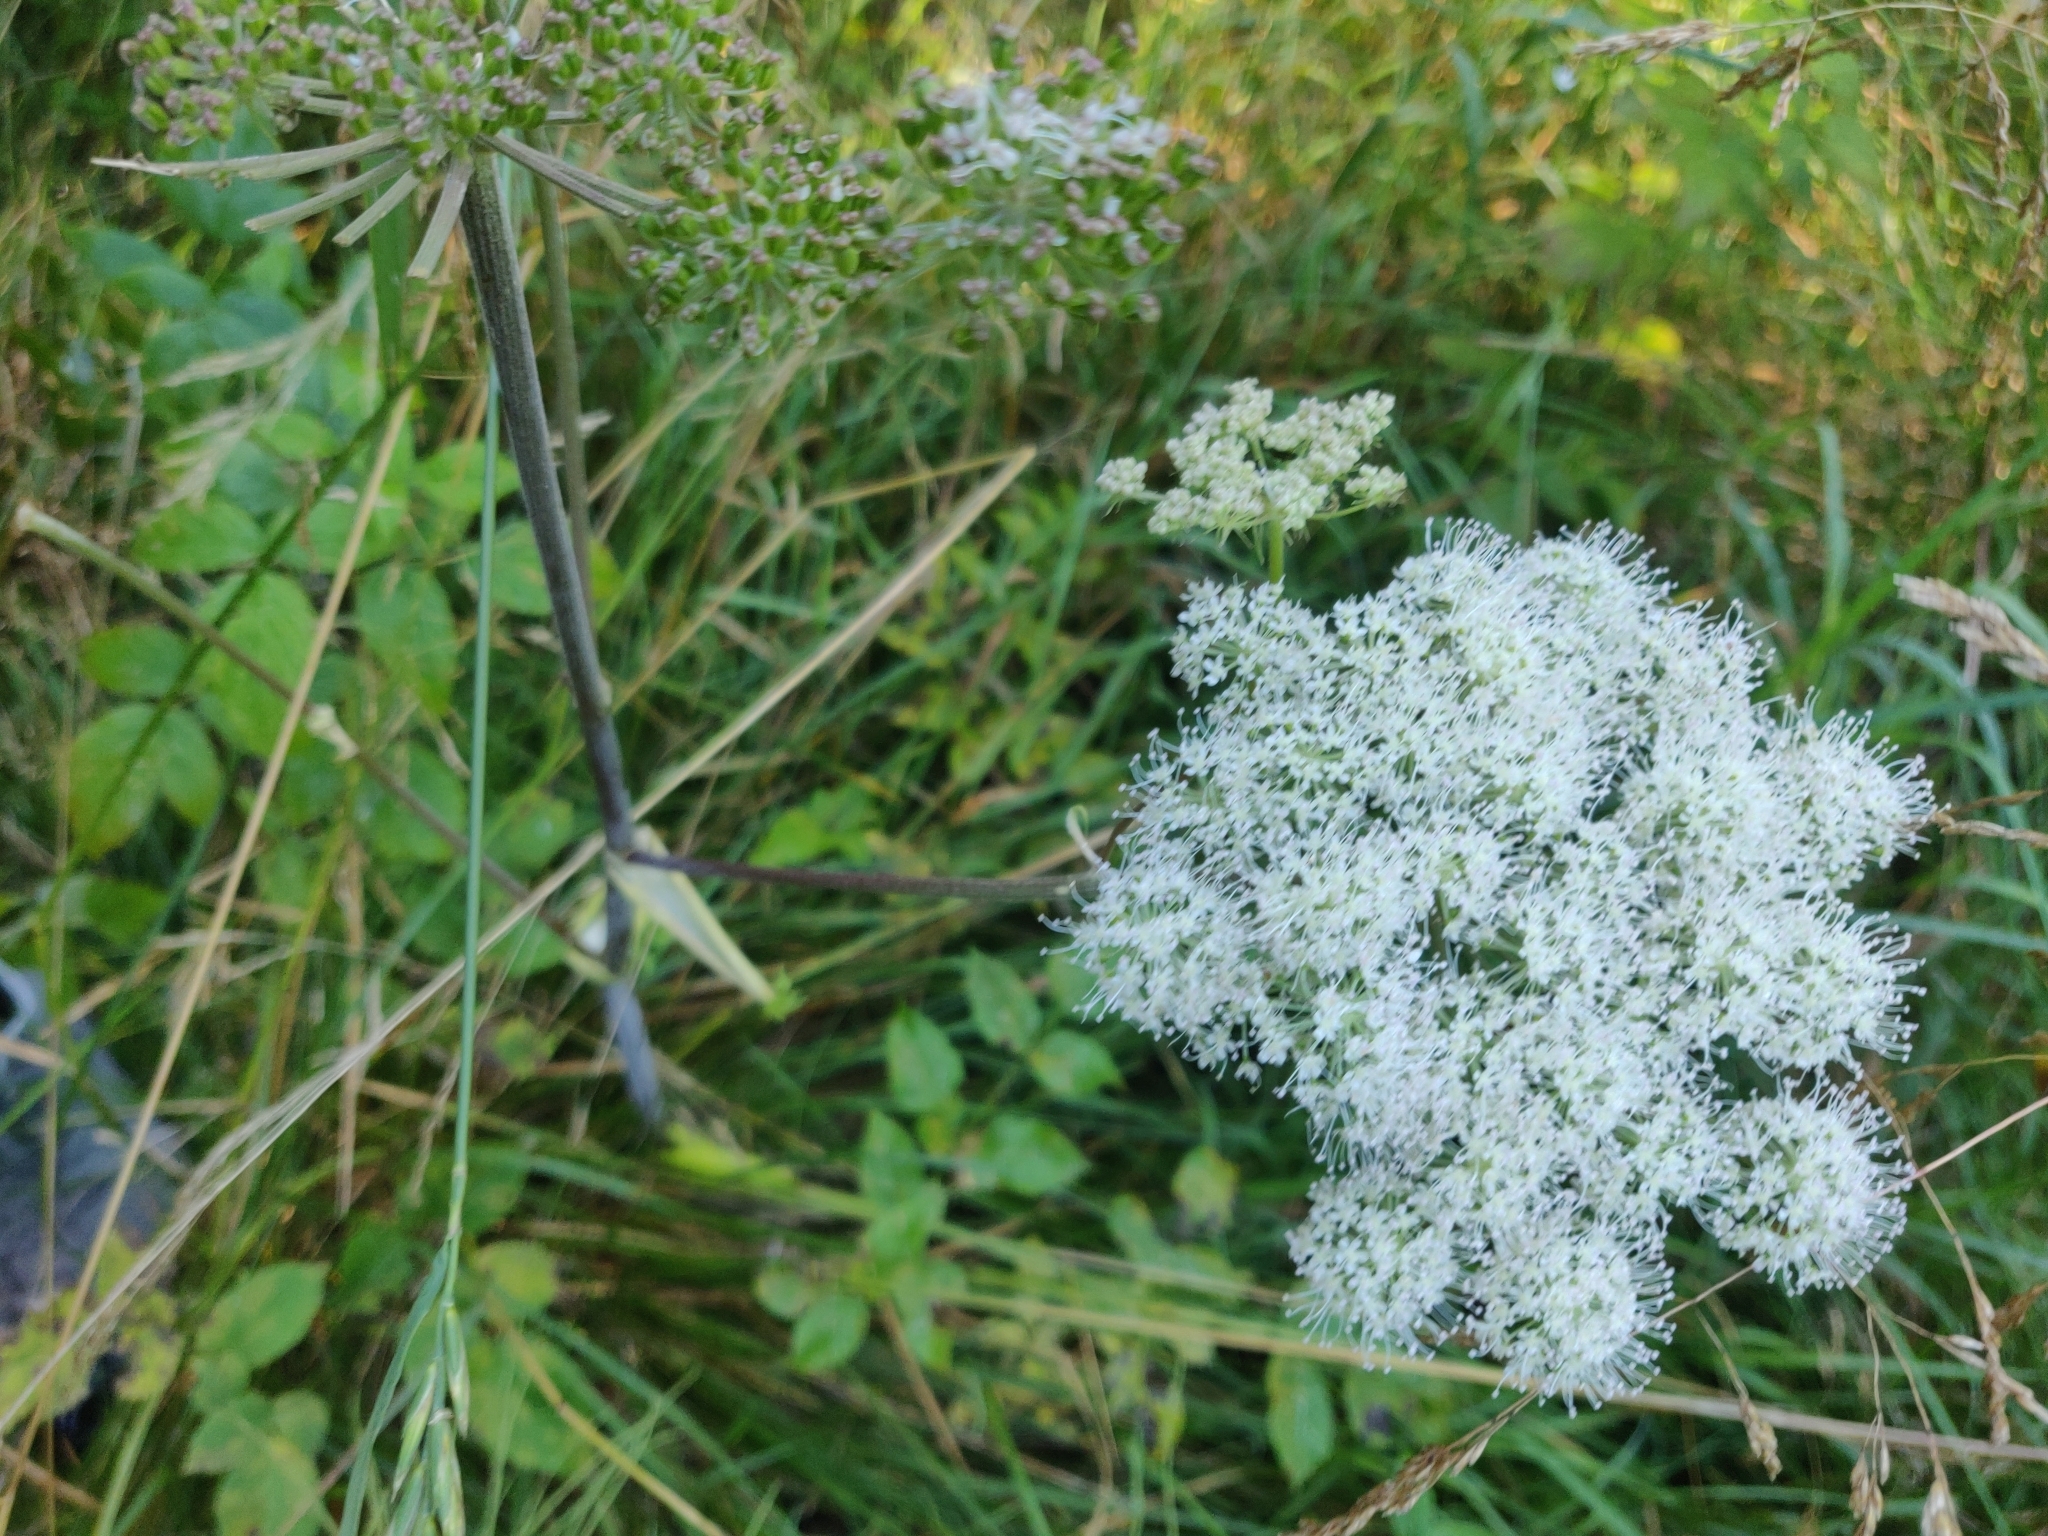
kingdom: Plantae
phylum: Tracheophyta
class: Magnoliopsida
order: Apiales
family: Apiaceae
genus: Angelica
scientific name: Angelica sylvestris
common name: Wild angelica
